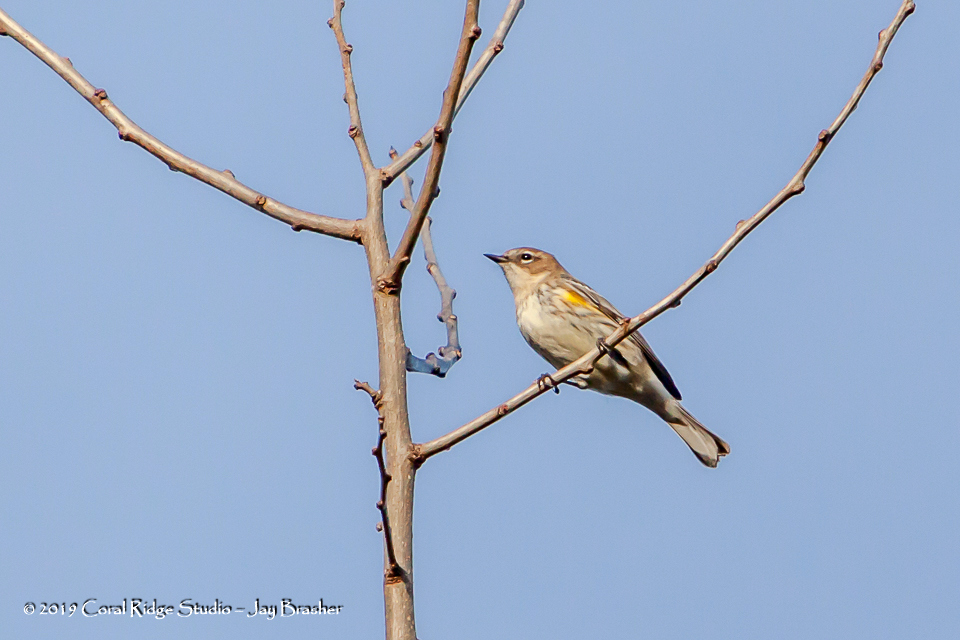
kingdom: Animalia
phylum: Chordata
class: Aves
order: Passeriformes
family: Parulidae
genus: Setophaga
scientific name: Setophaga coronata
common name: Myrtle warbler
